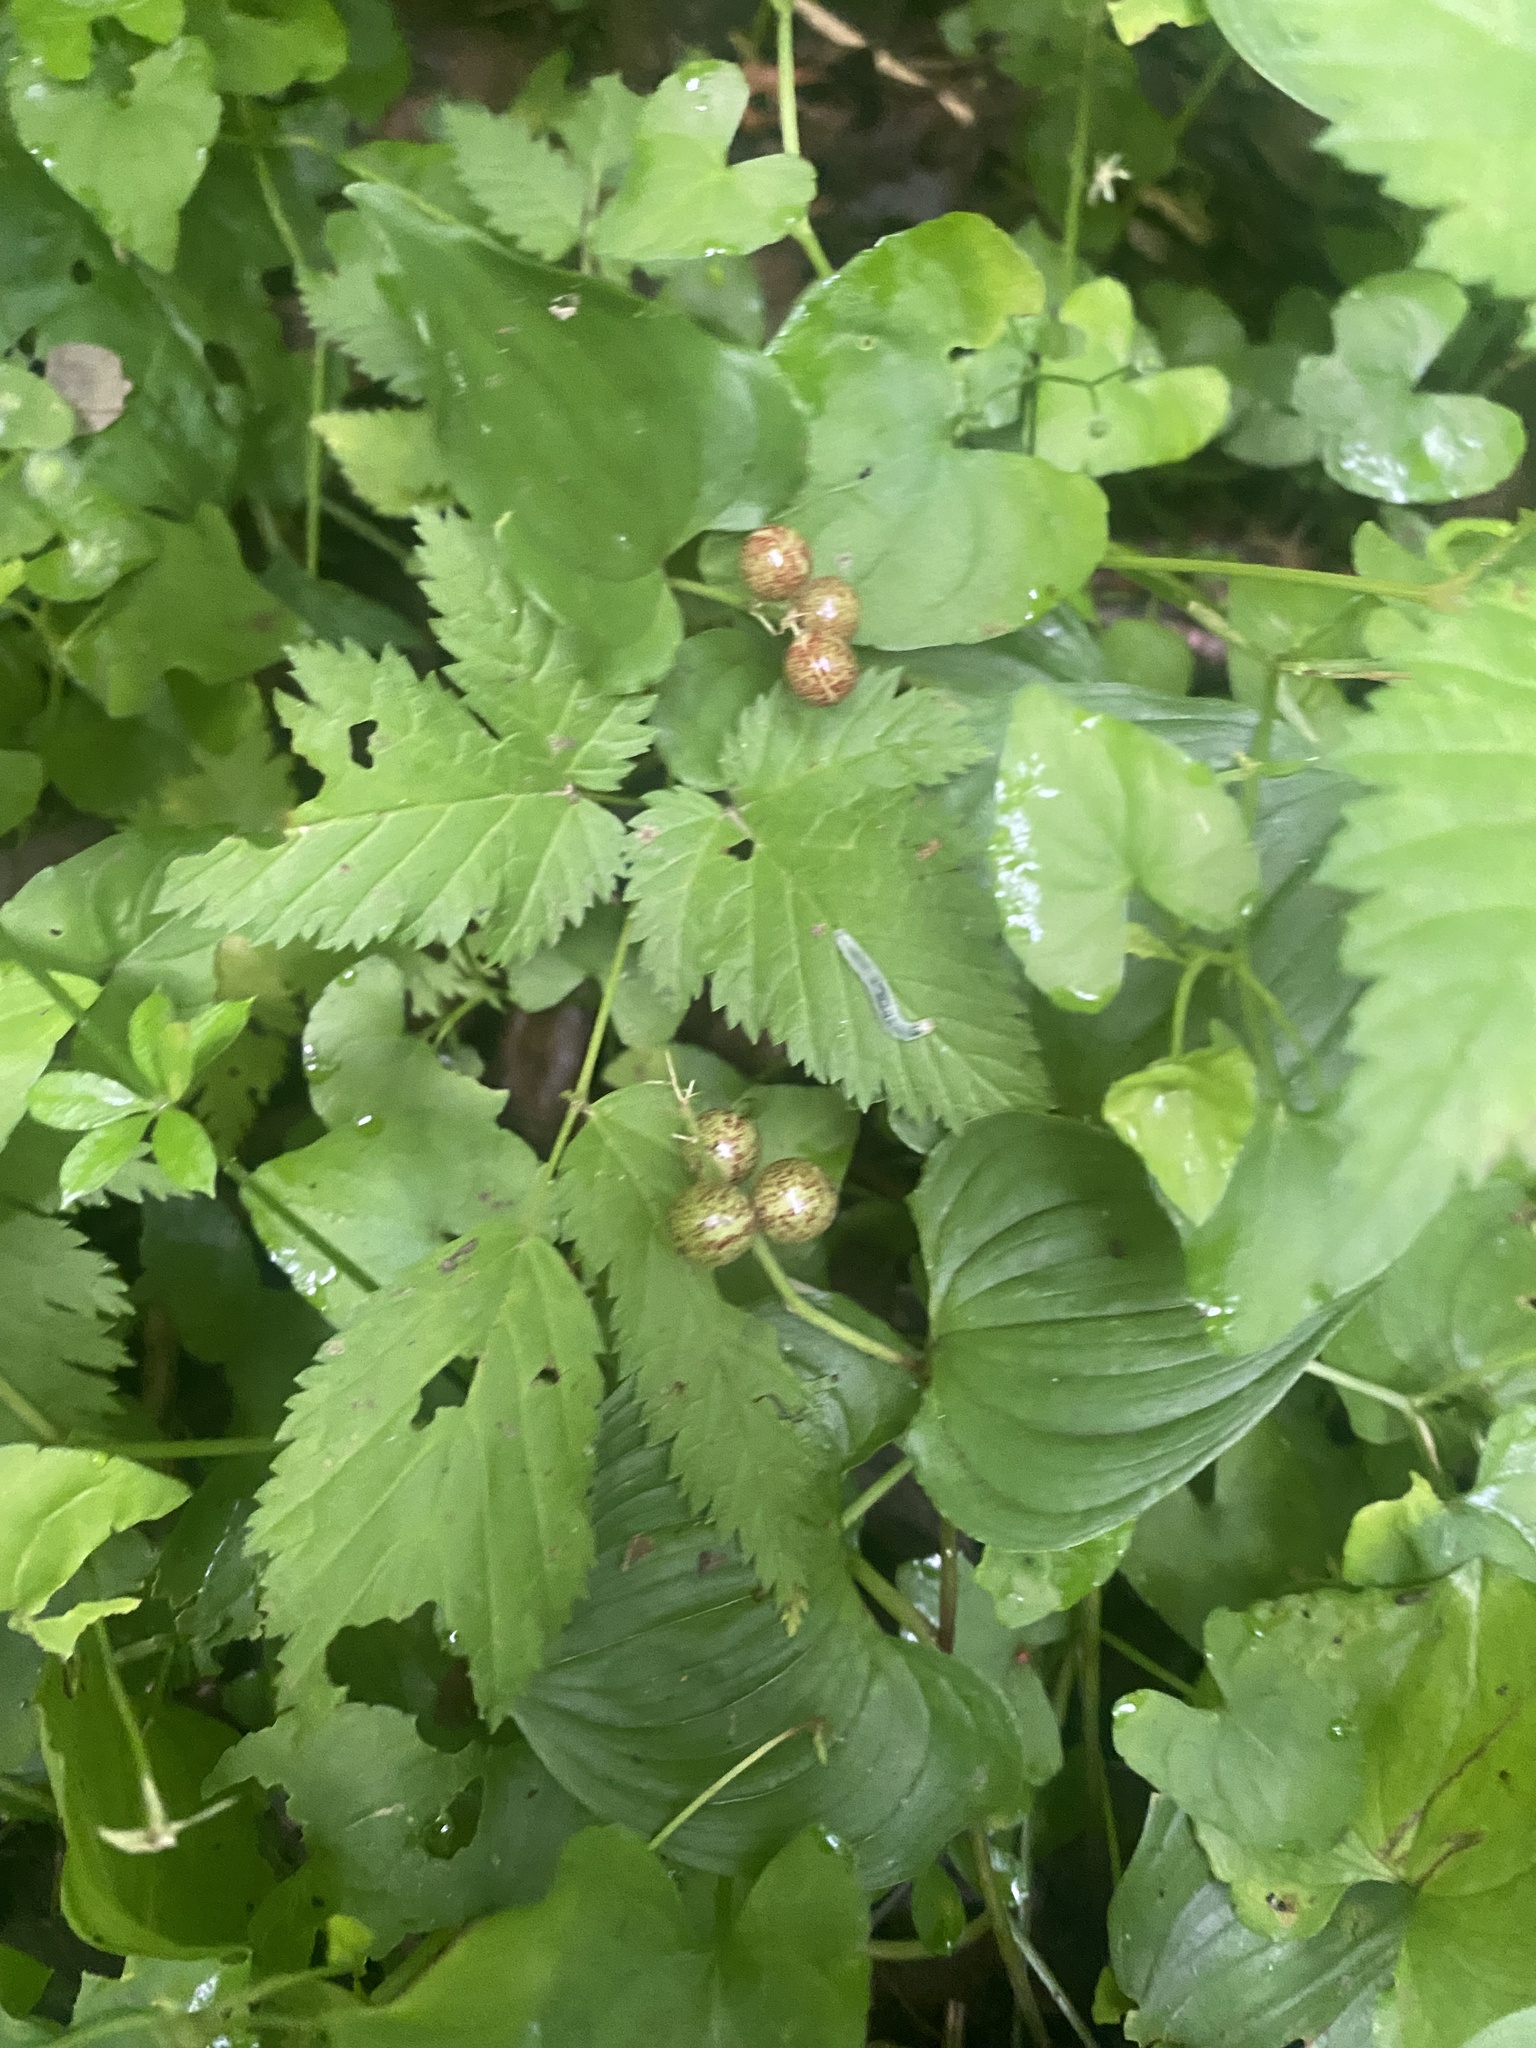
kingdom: Plantae
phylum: Tracheophyta
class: Liliopsida
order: Asparagales
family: Asparagaceae
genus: Maianthemum
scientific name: Maianthemum dilatatum
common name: False lily-of-the-valley
